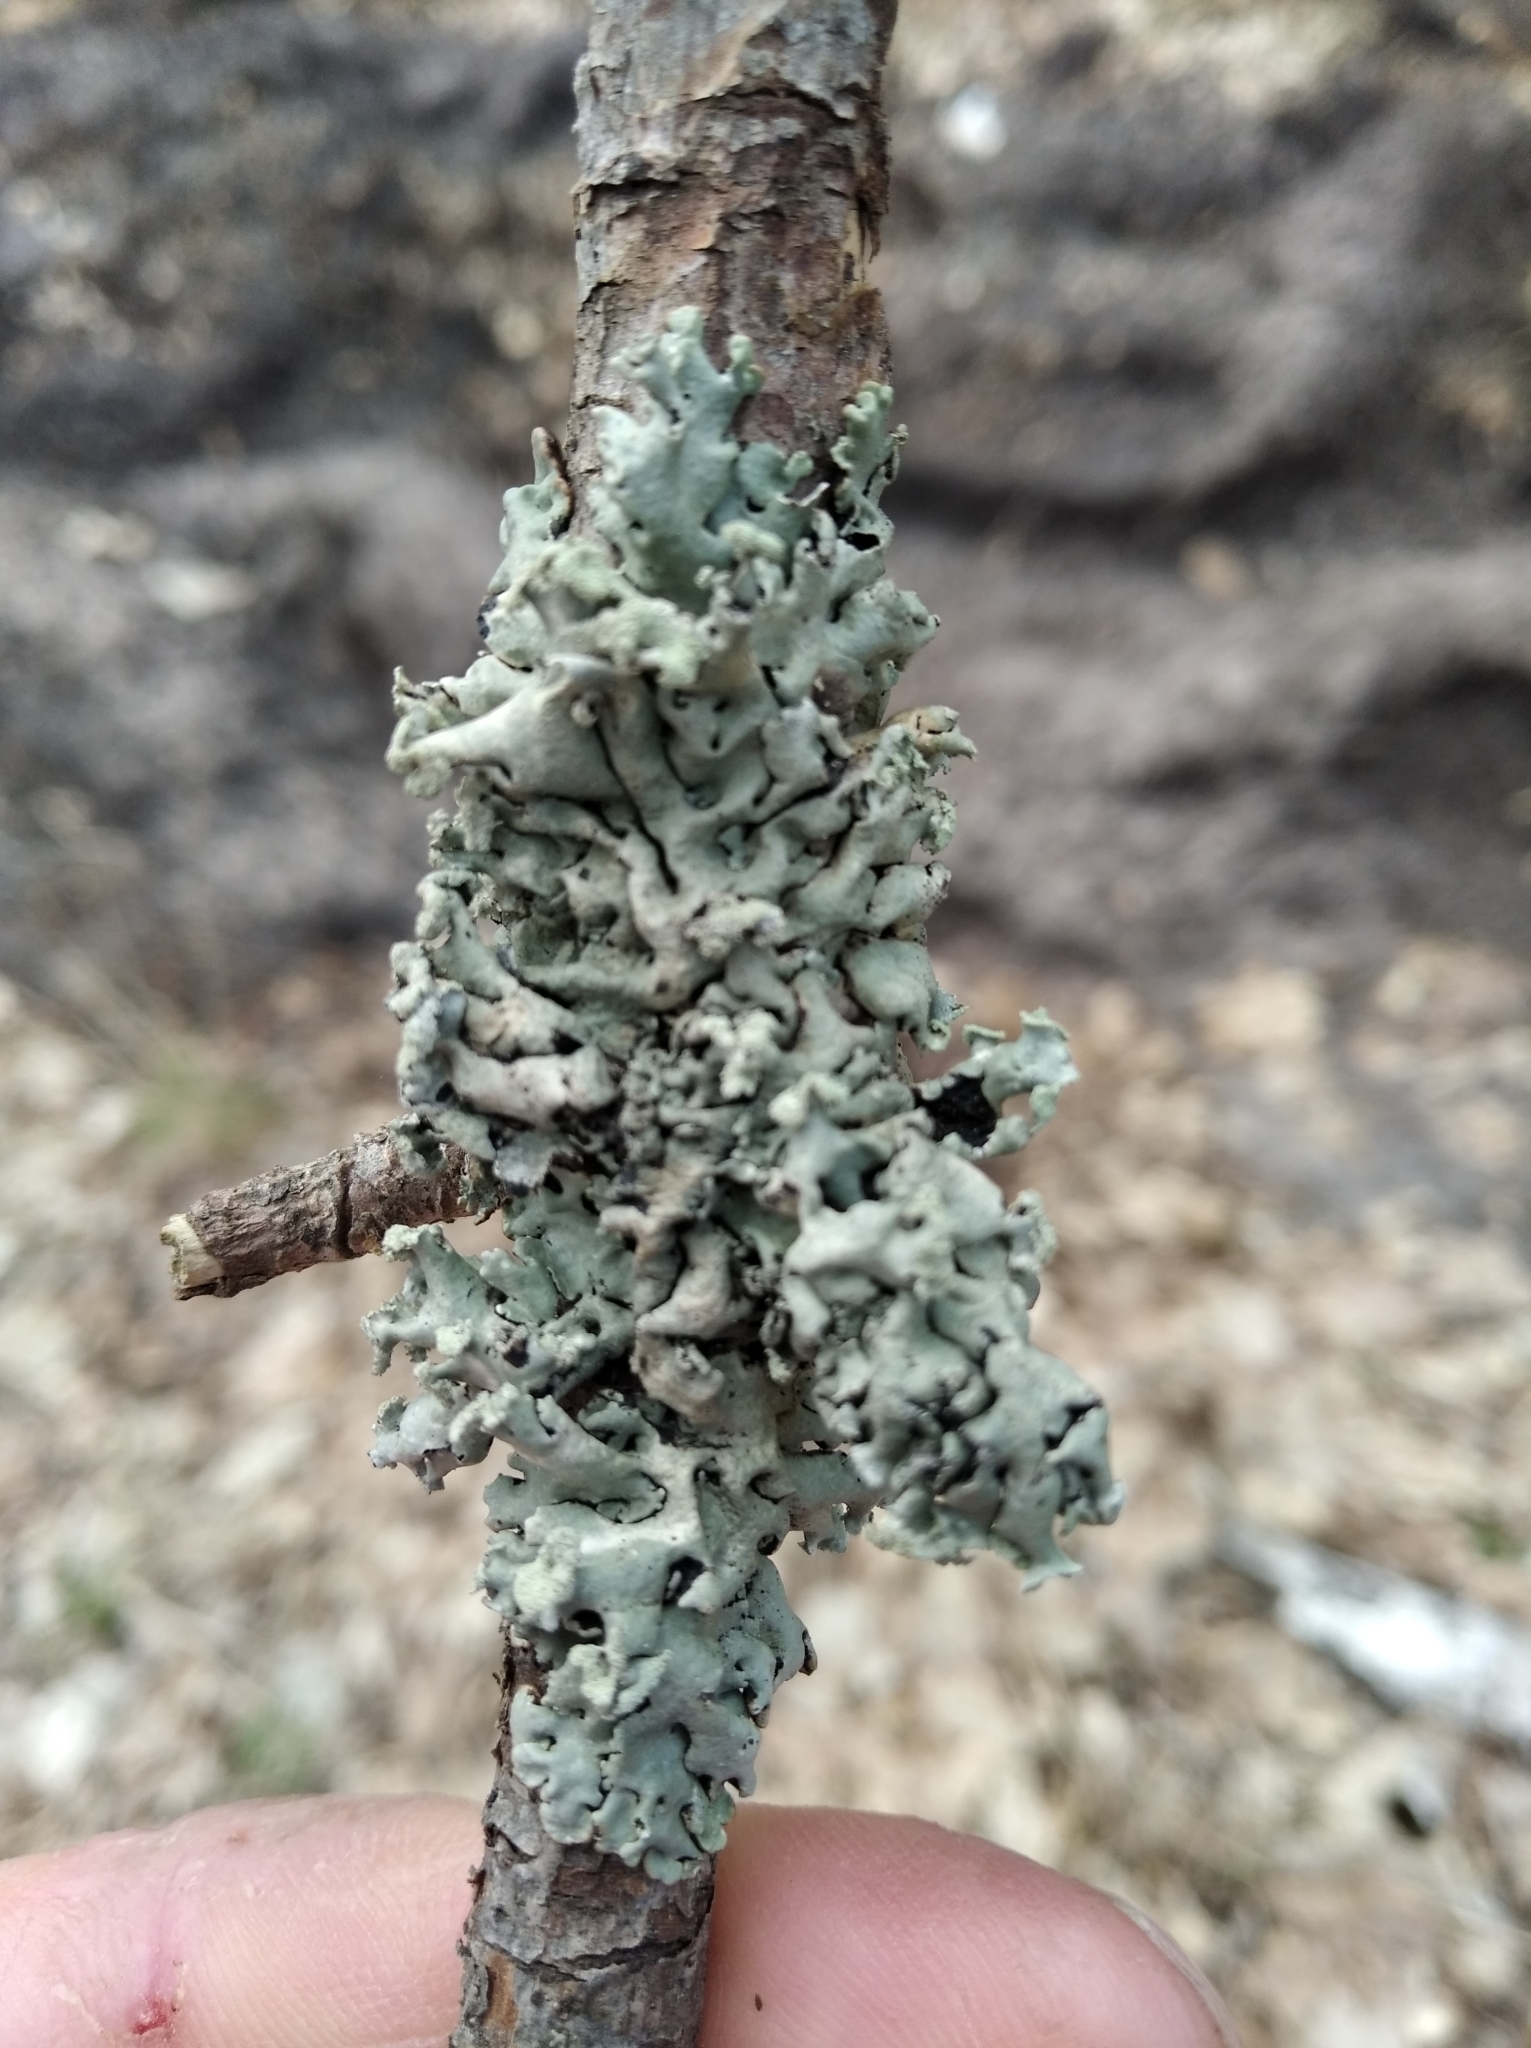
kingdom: Fungi
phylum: Ascomycota
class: Lecanoromycetes
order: Lecanorales
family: Parmeliaceae
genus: Hypogymnia
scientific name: Hypogymnia physodes
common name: Dark crottle
